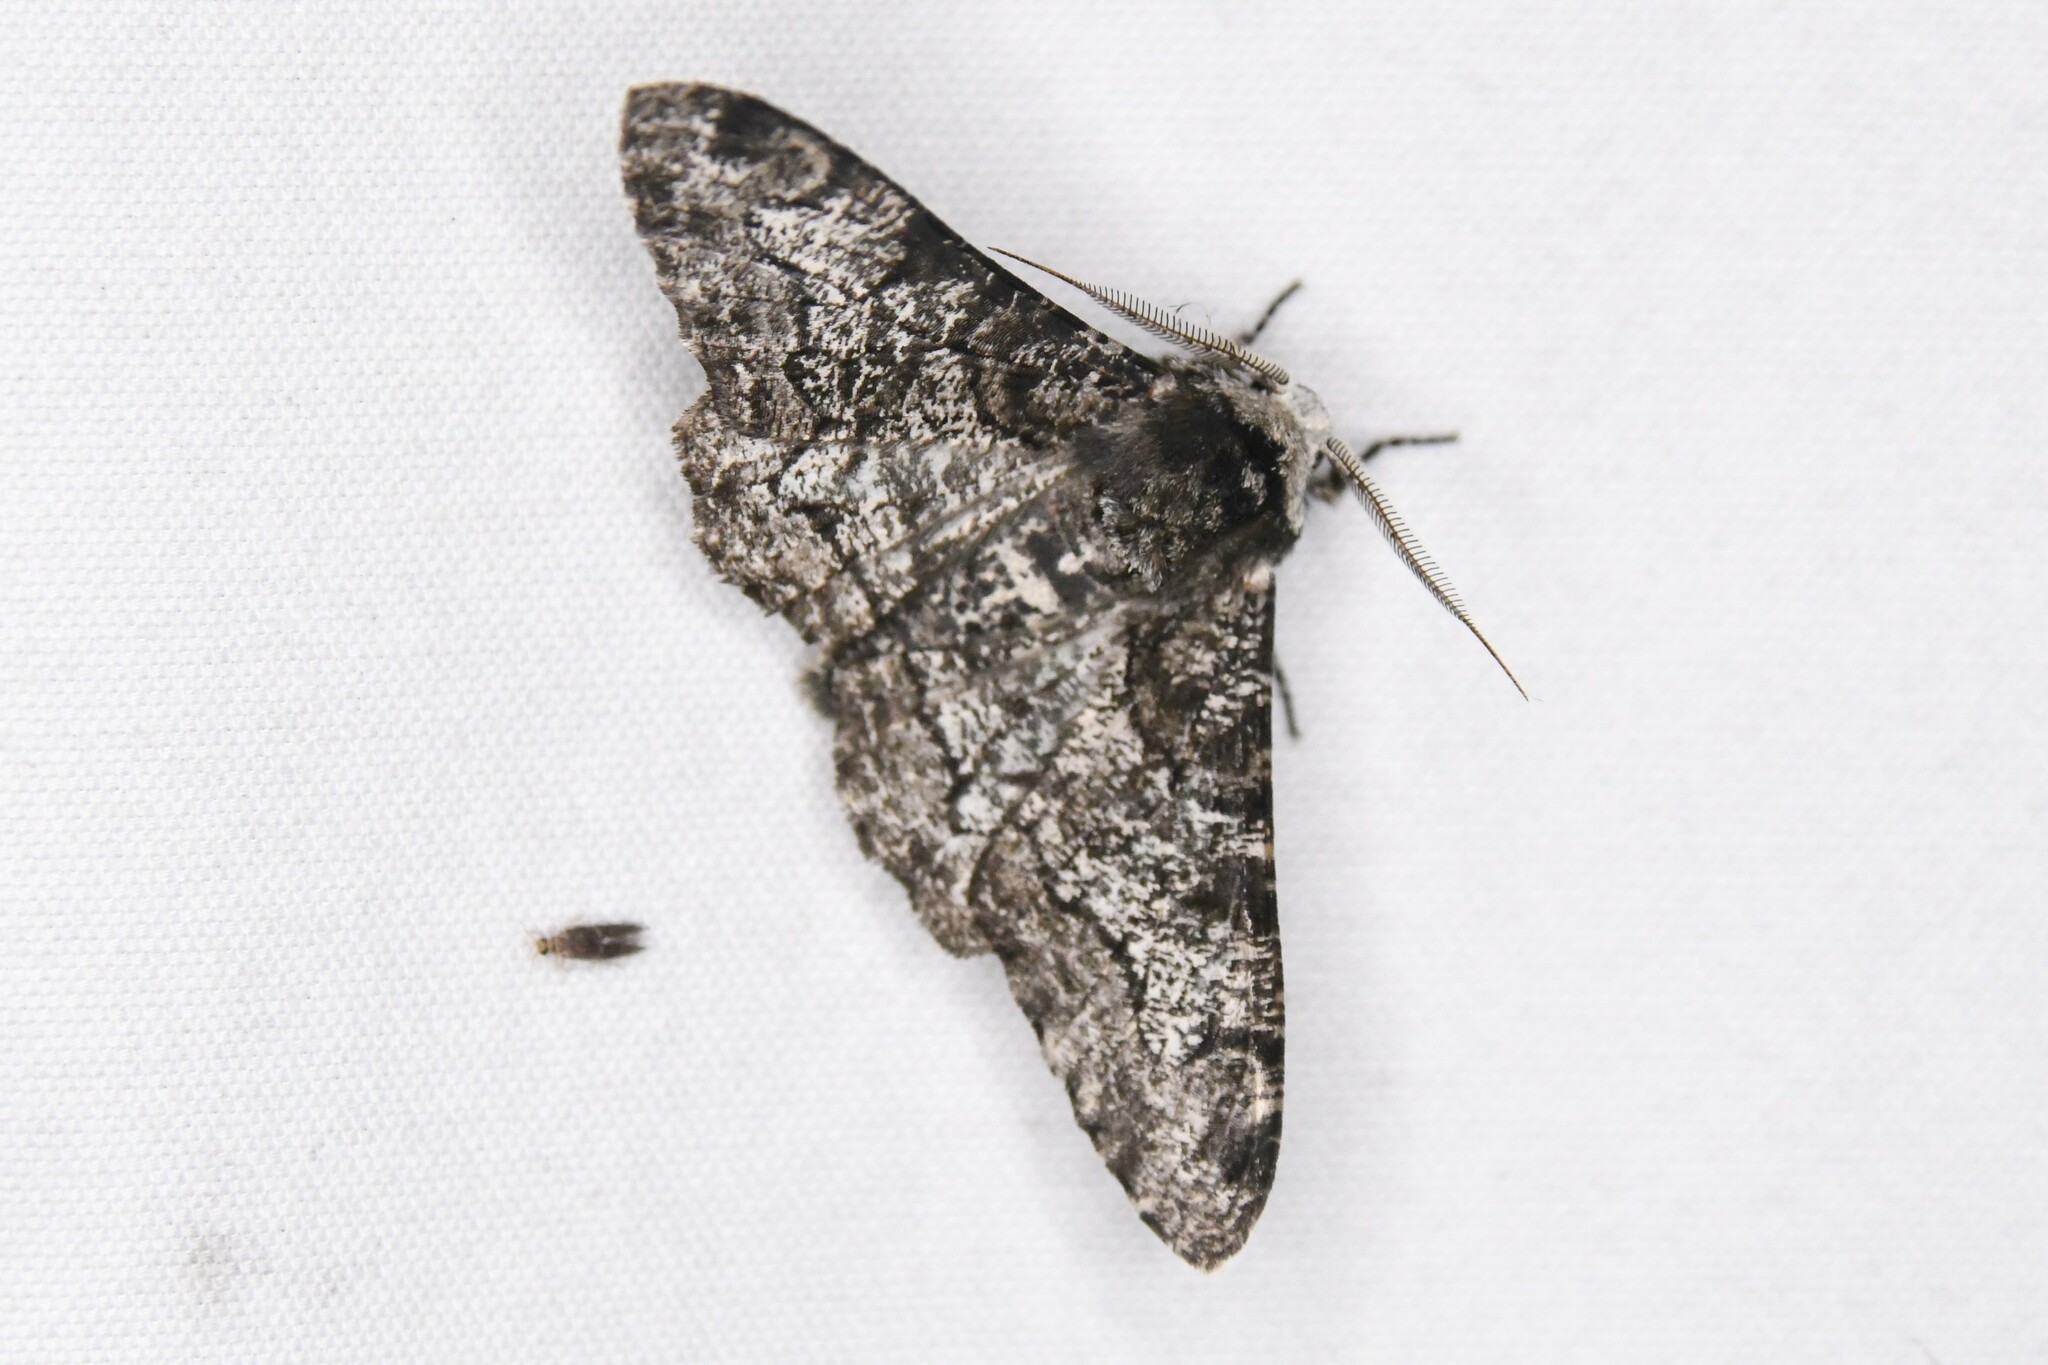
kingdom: Animalia
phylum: Arthropoda
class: Insecta
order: Lepidoptera
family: Geometridae
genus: Biston
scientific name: Biston betularia
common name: Peppered moth
